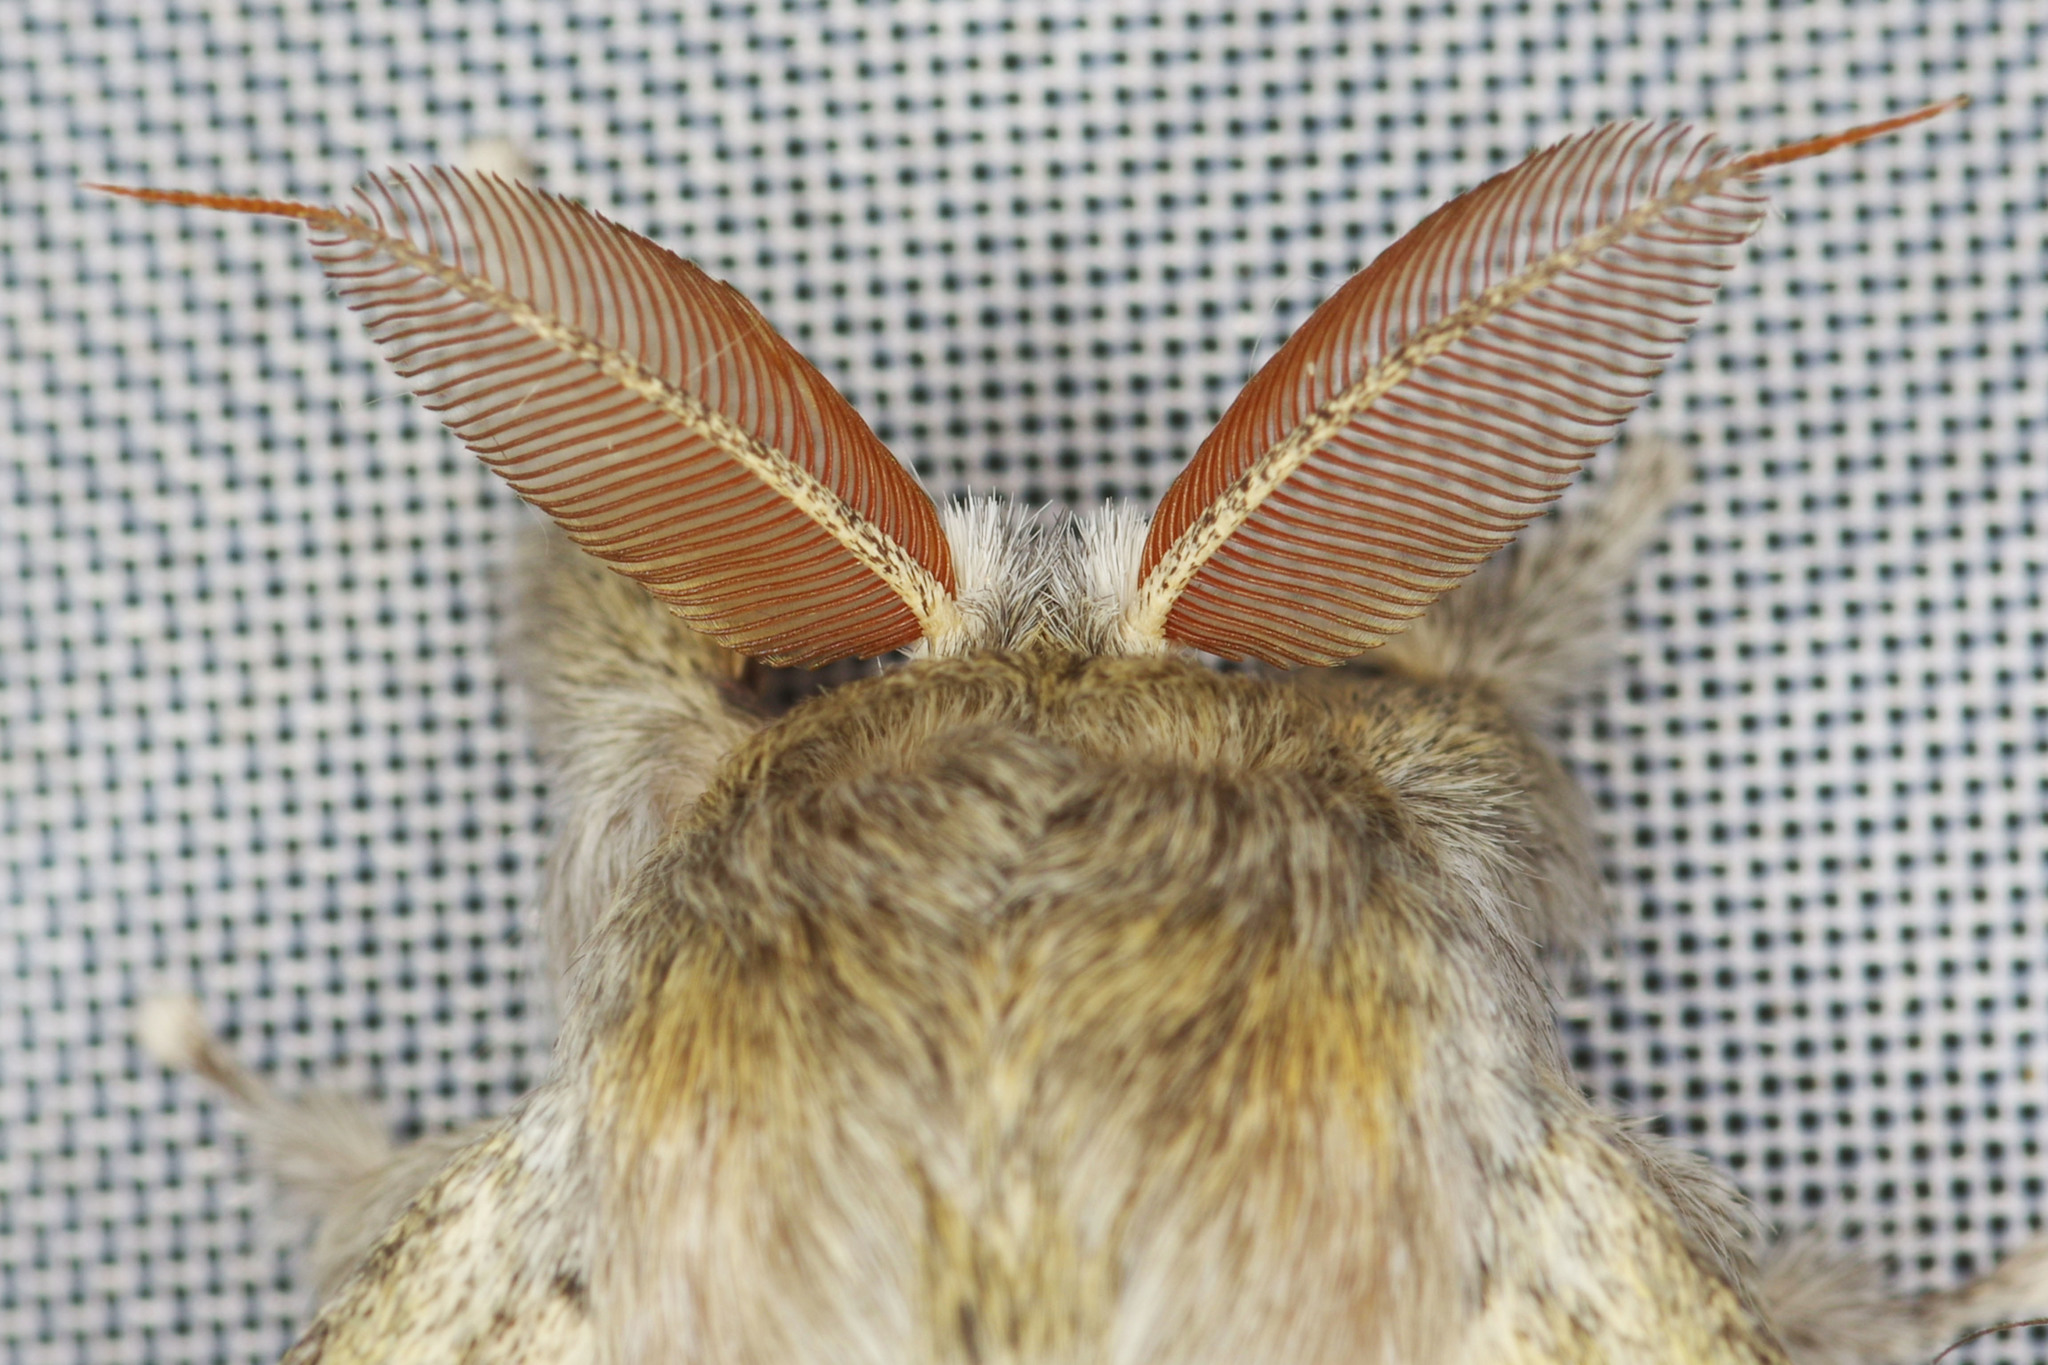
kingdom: Animalia
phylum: Arthropoda
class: Insecta
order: Lepidoptera
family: Notodontidae
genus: Stauropus
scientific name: Stauropus fagi
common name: Lobster moth
